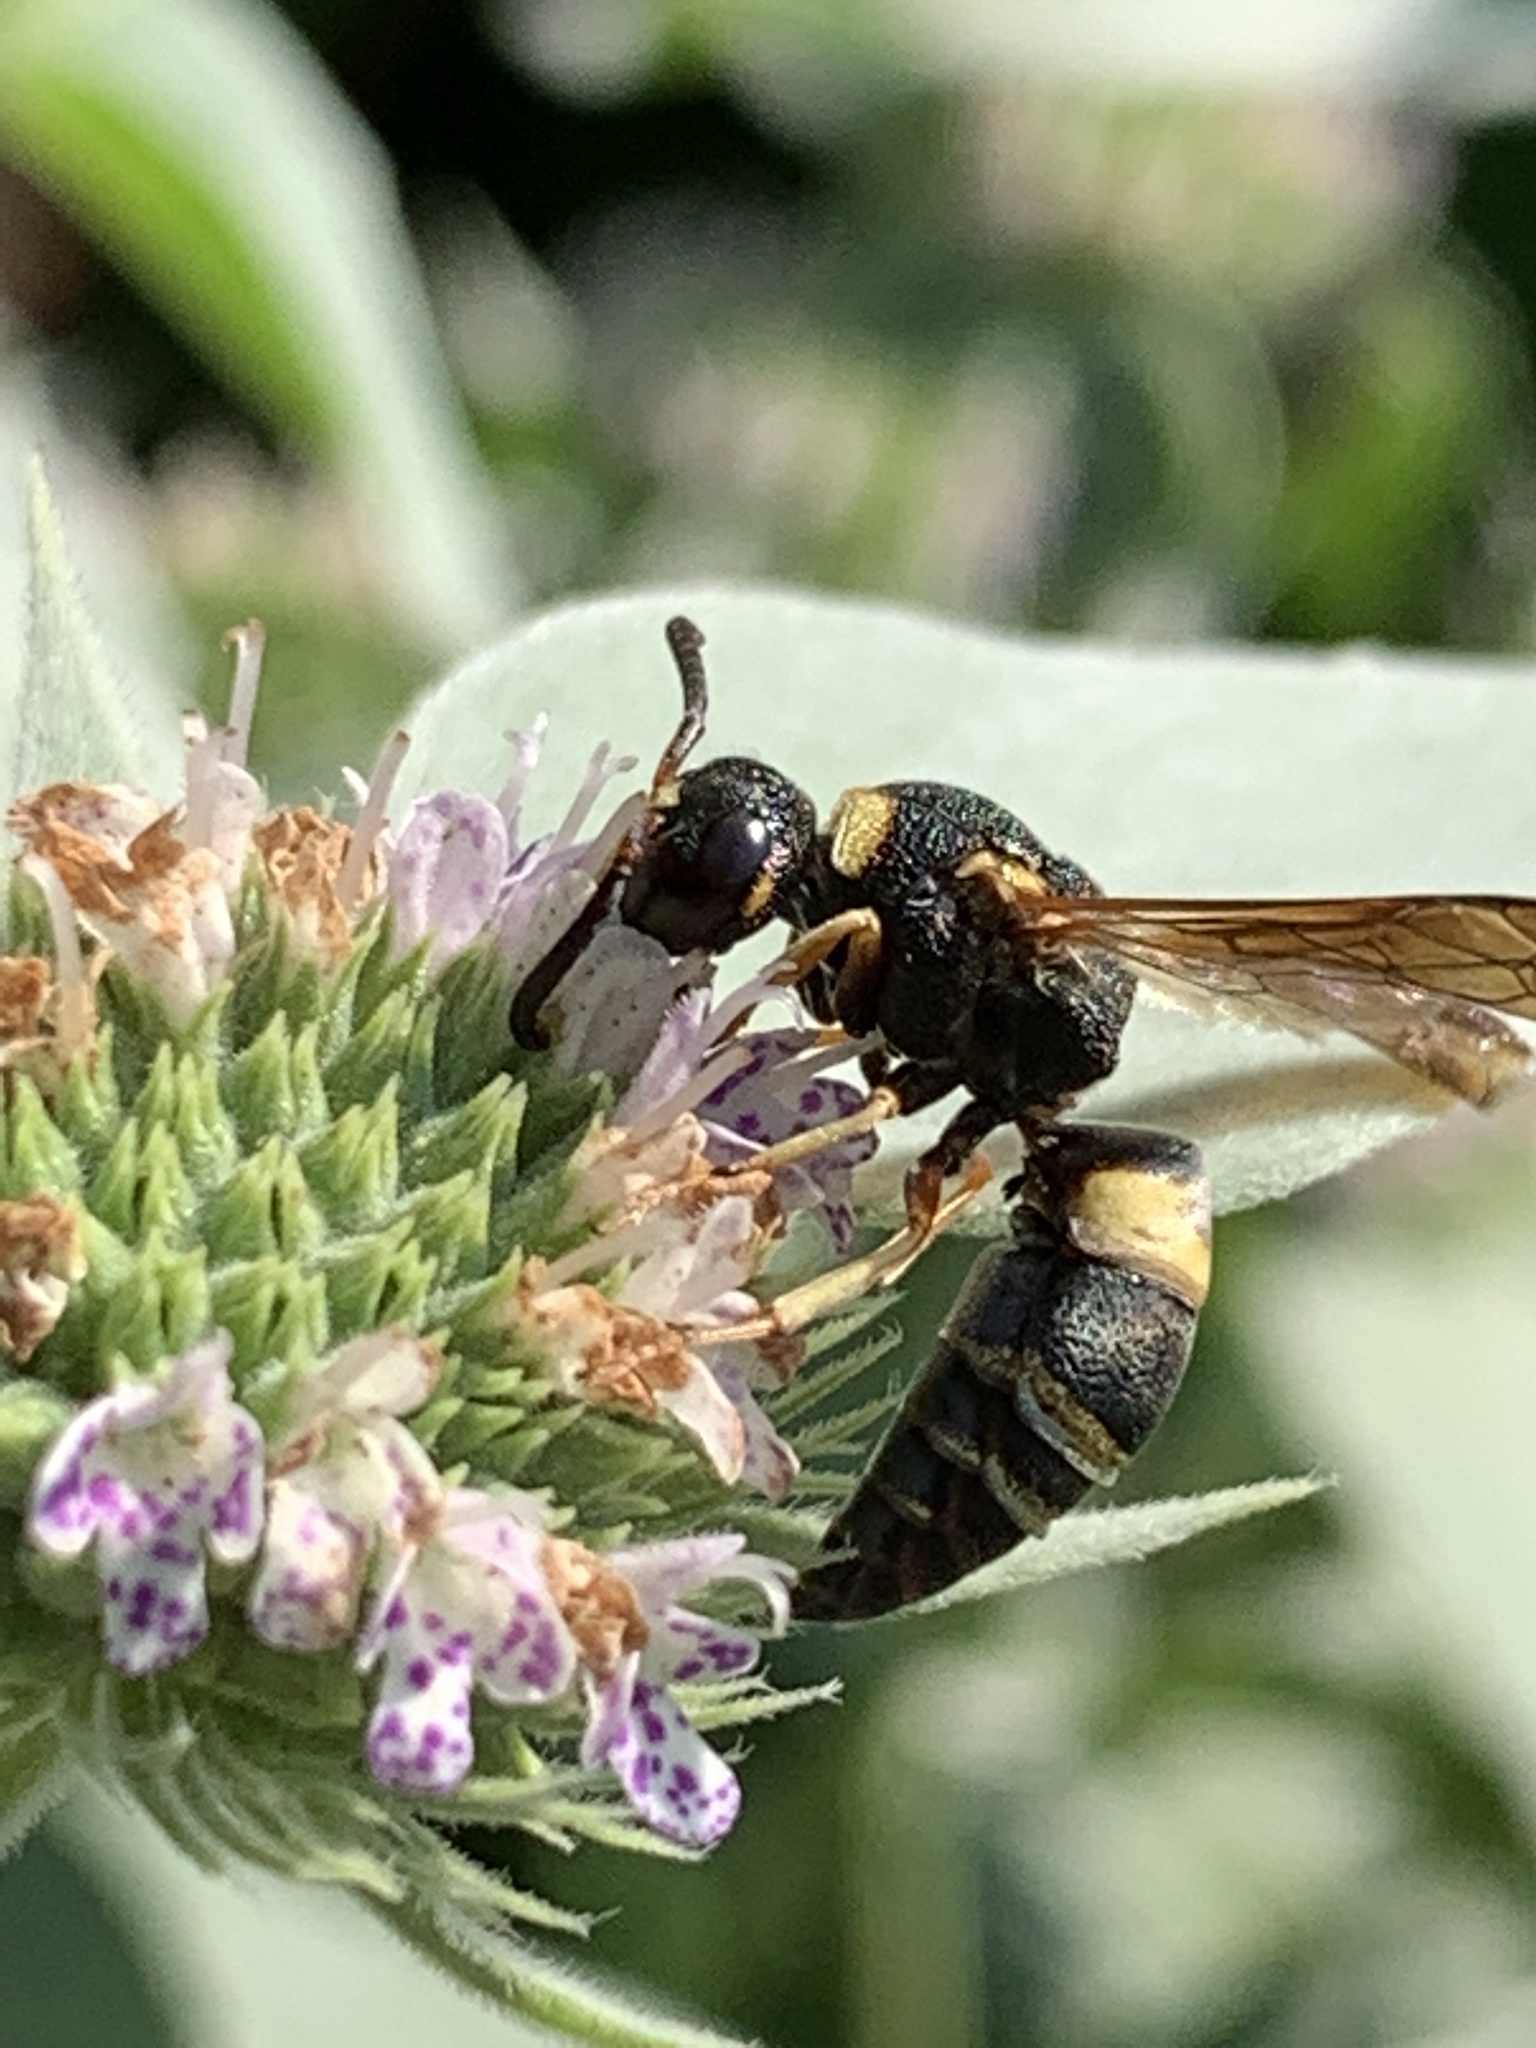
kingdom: Animalia
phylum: Arthropoda
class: Insecta
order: Hymenoptera
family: Eumenidae
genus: Euodynerus
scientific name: Euodynerus hidalgo
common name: Wasp
